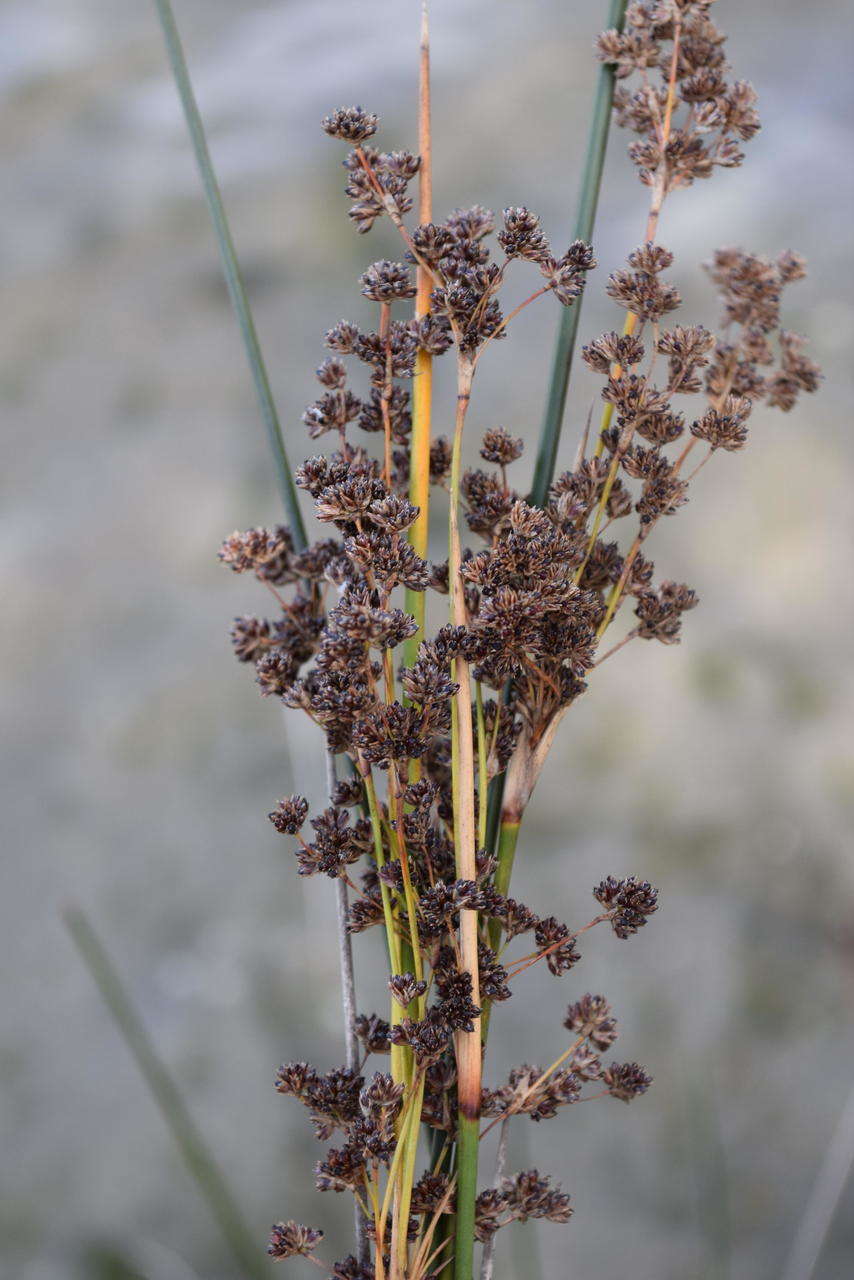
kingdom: Plantae
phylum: Tracheophyta
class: Liliopsida
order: Poales
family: Juncaceae
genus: Juncus
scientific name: Juncus kraussii
